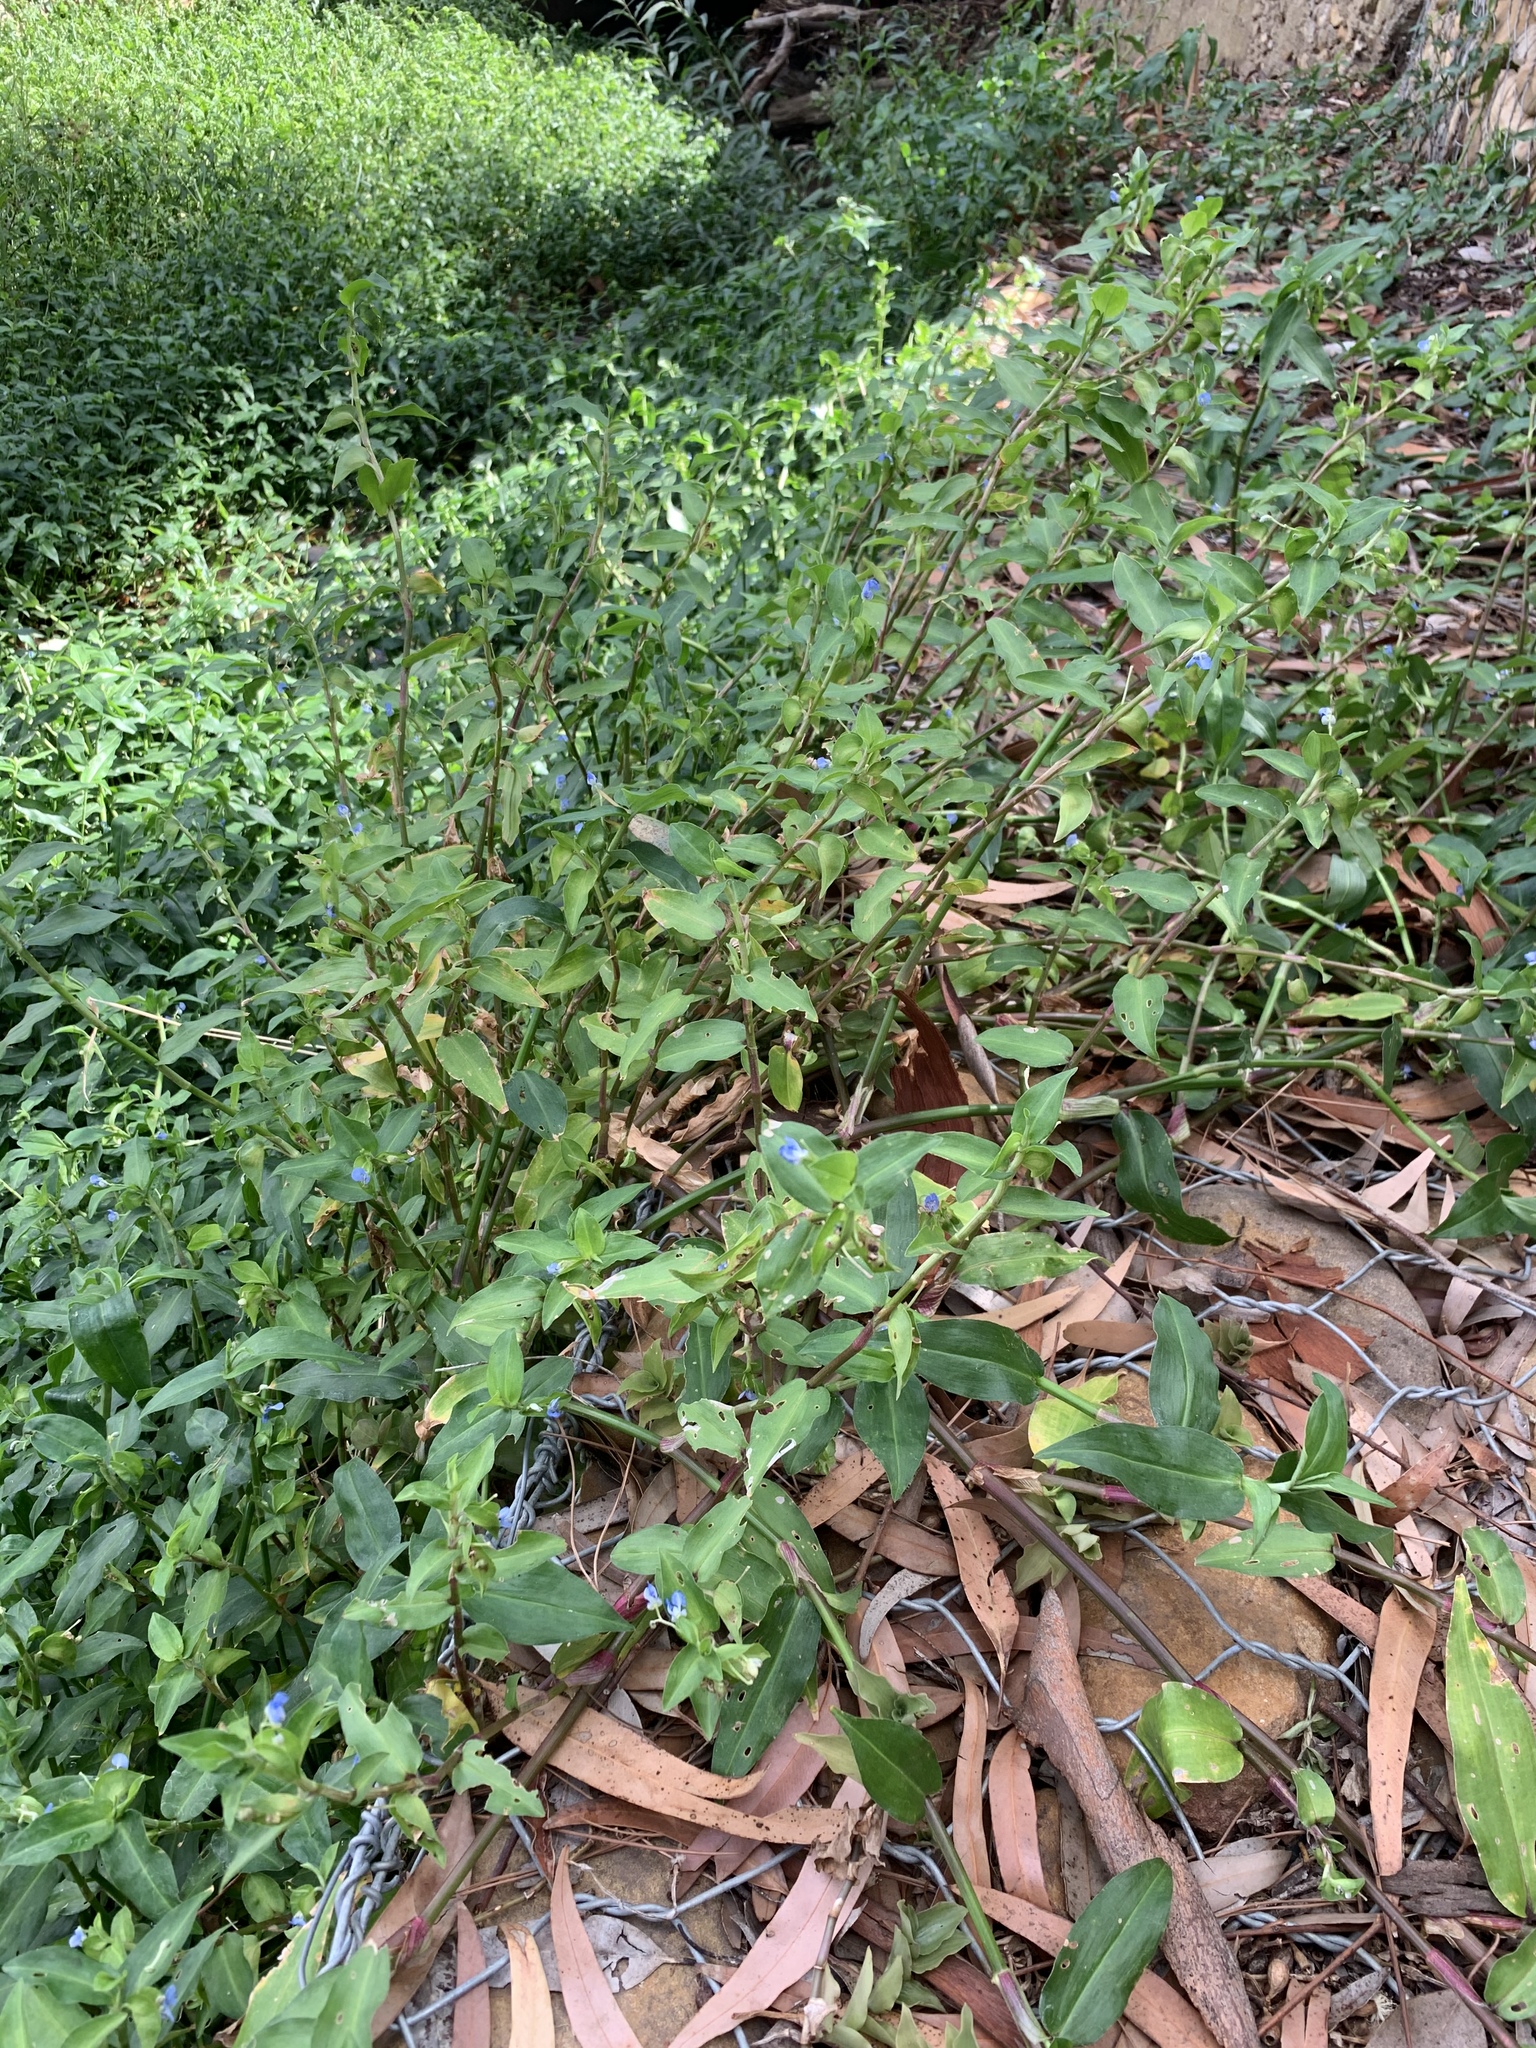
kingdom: Plantae
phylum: Tracheophyta
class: Liliopsida
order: Commelinales
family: Commelinaceae
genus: Commelina
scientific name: Commelina diffusa
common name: Climbing dayflower
